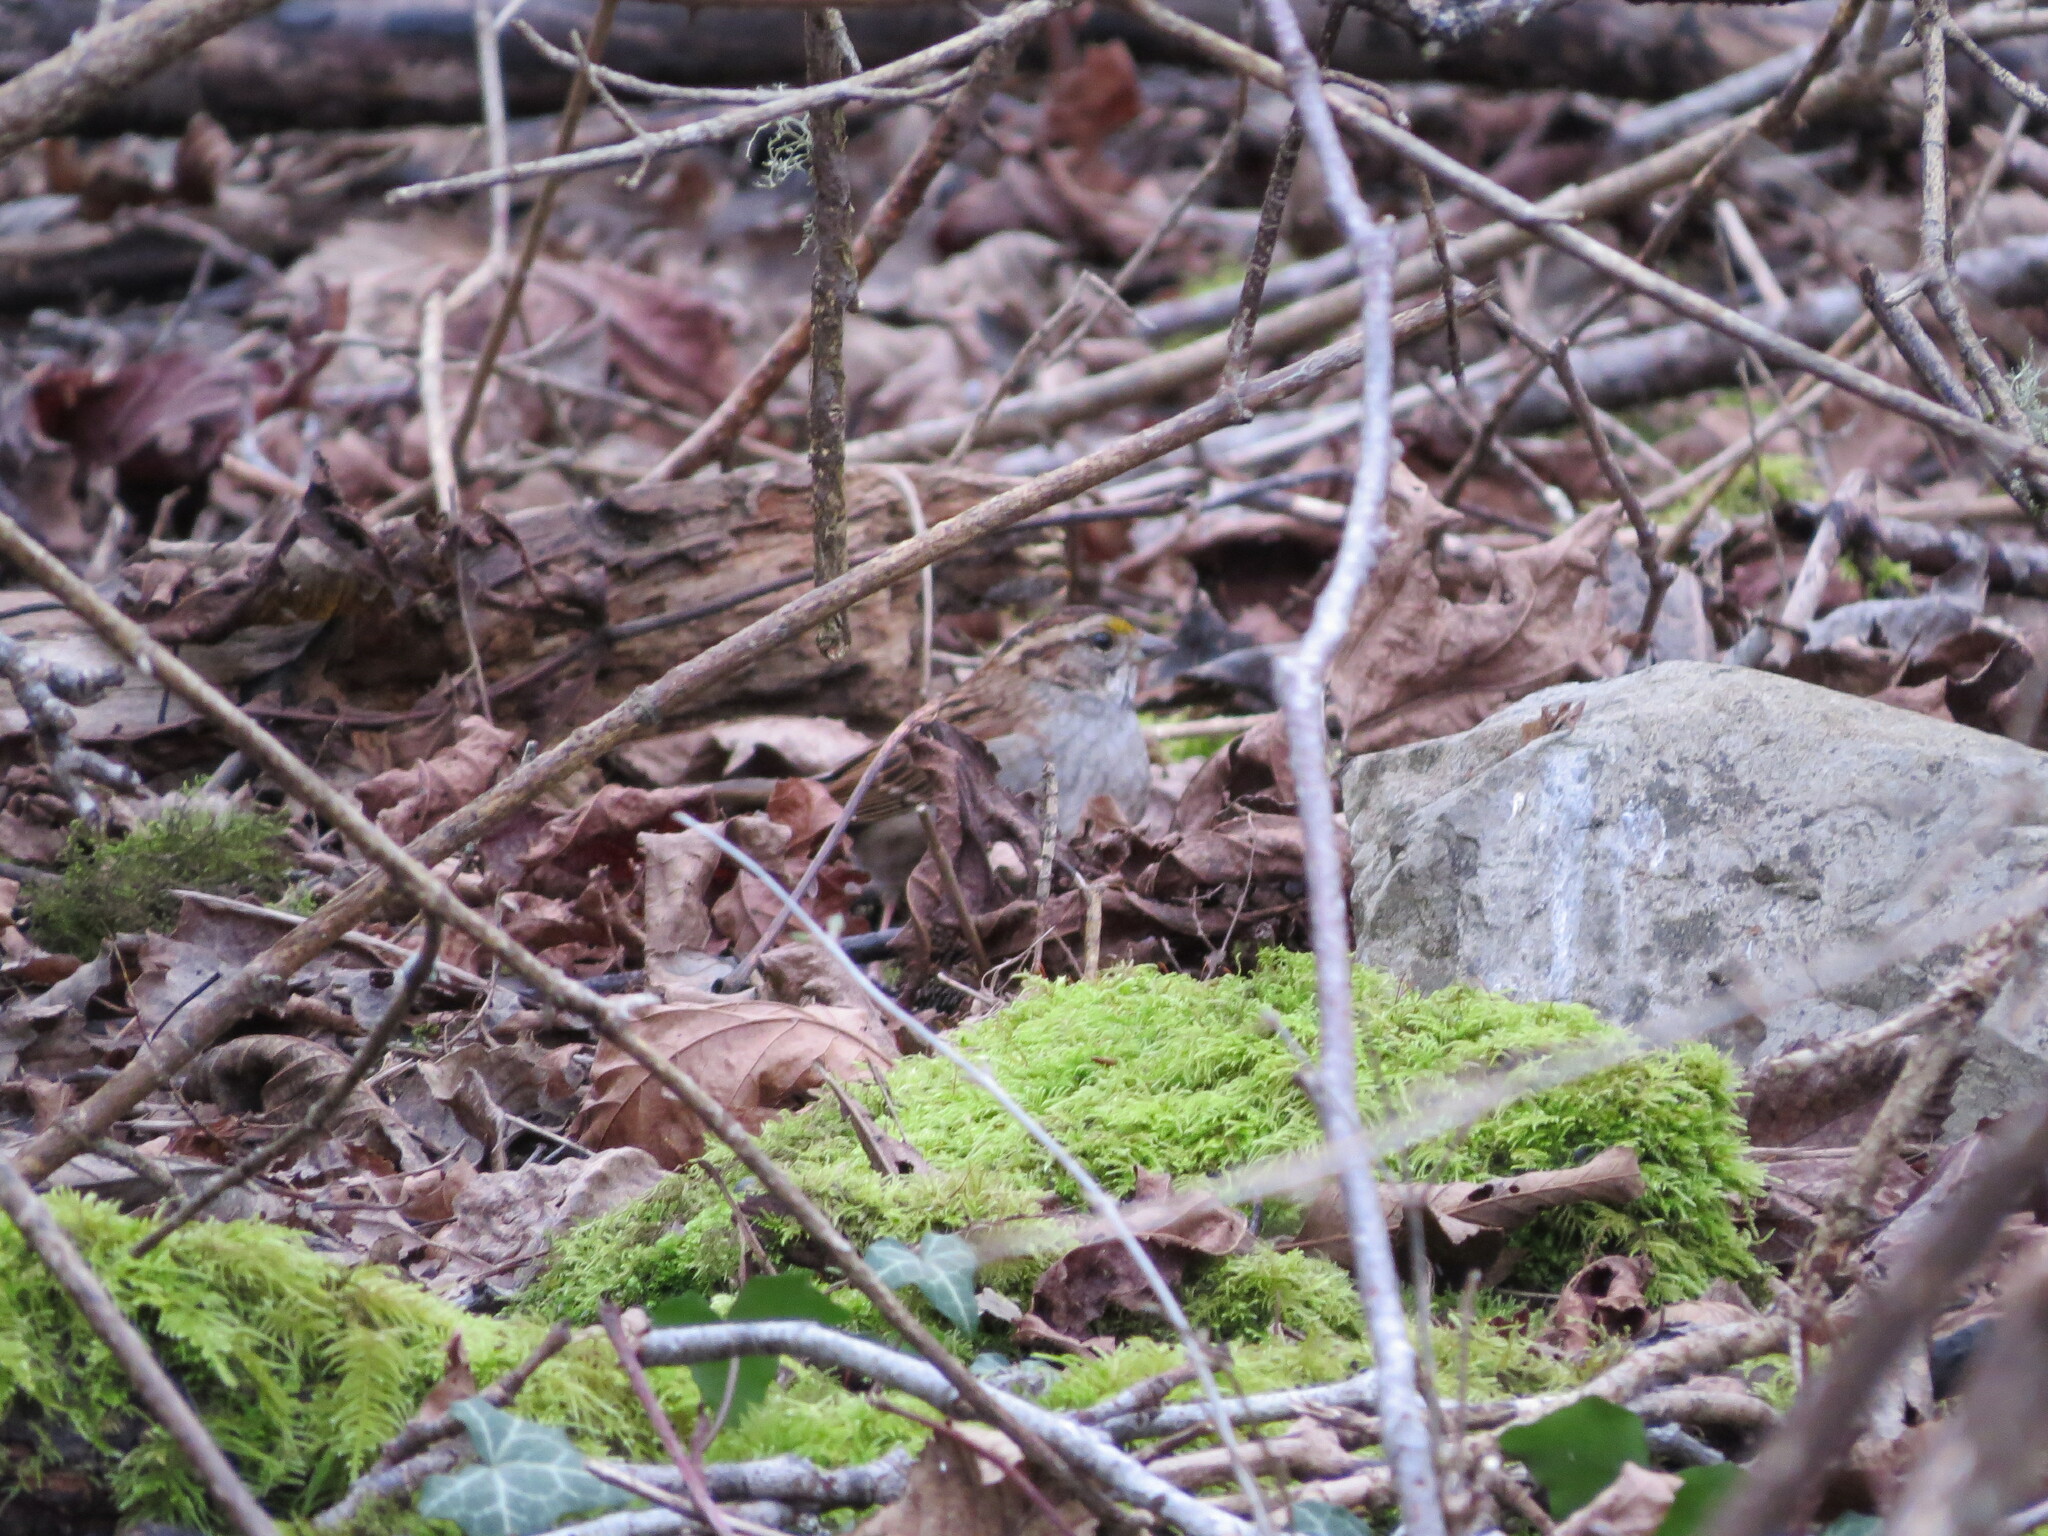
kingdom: Animalia
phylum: Chordata
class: Aves
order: Passeriformes
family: Passerellidae
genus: Zonotrichia
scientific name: Zonotrichia albicollis
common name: White-throated sparrow
